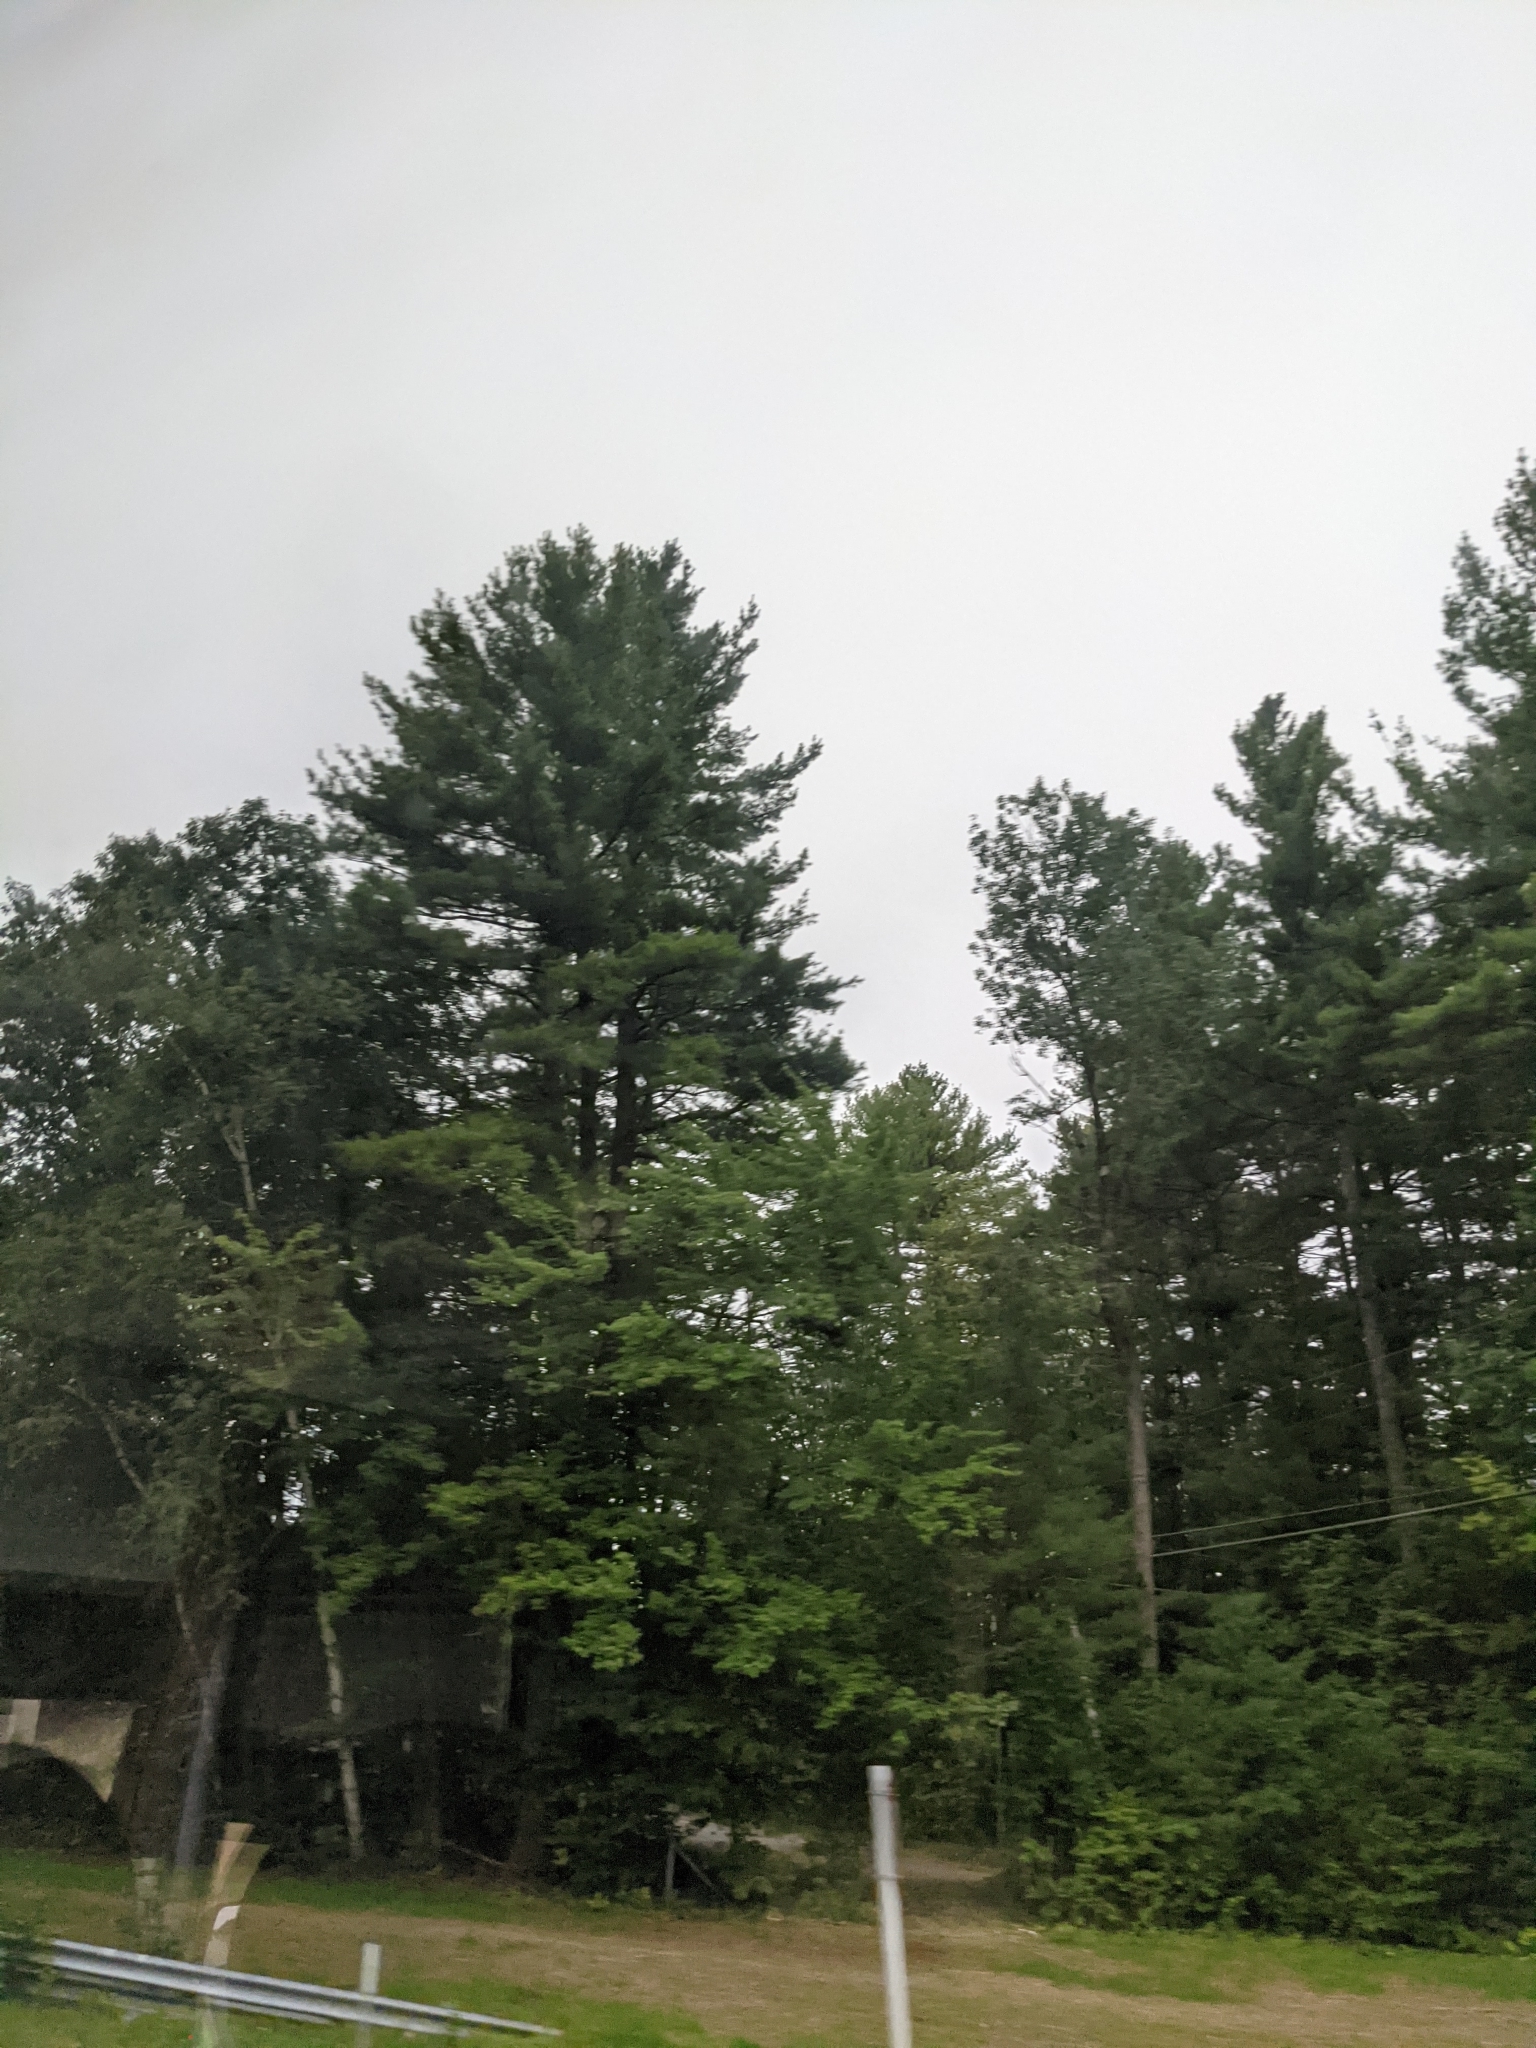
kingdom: Plantae
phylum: Tracheophyta
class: Pinopsida
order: Pinales
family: Pinaceae
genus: Pinus
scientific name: Pinus strobus
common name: Weymouth pine
